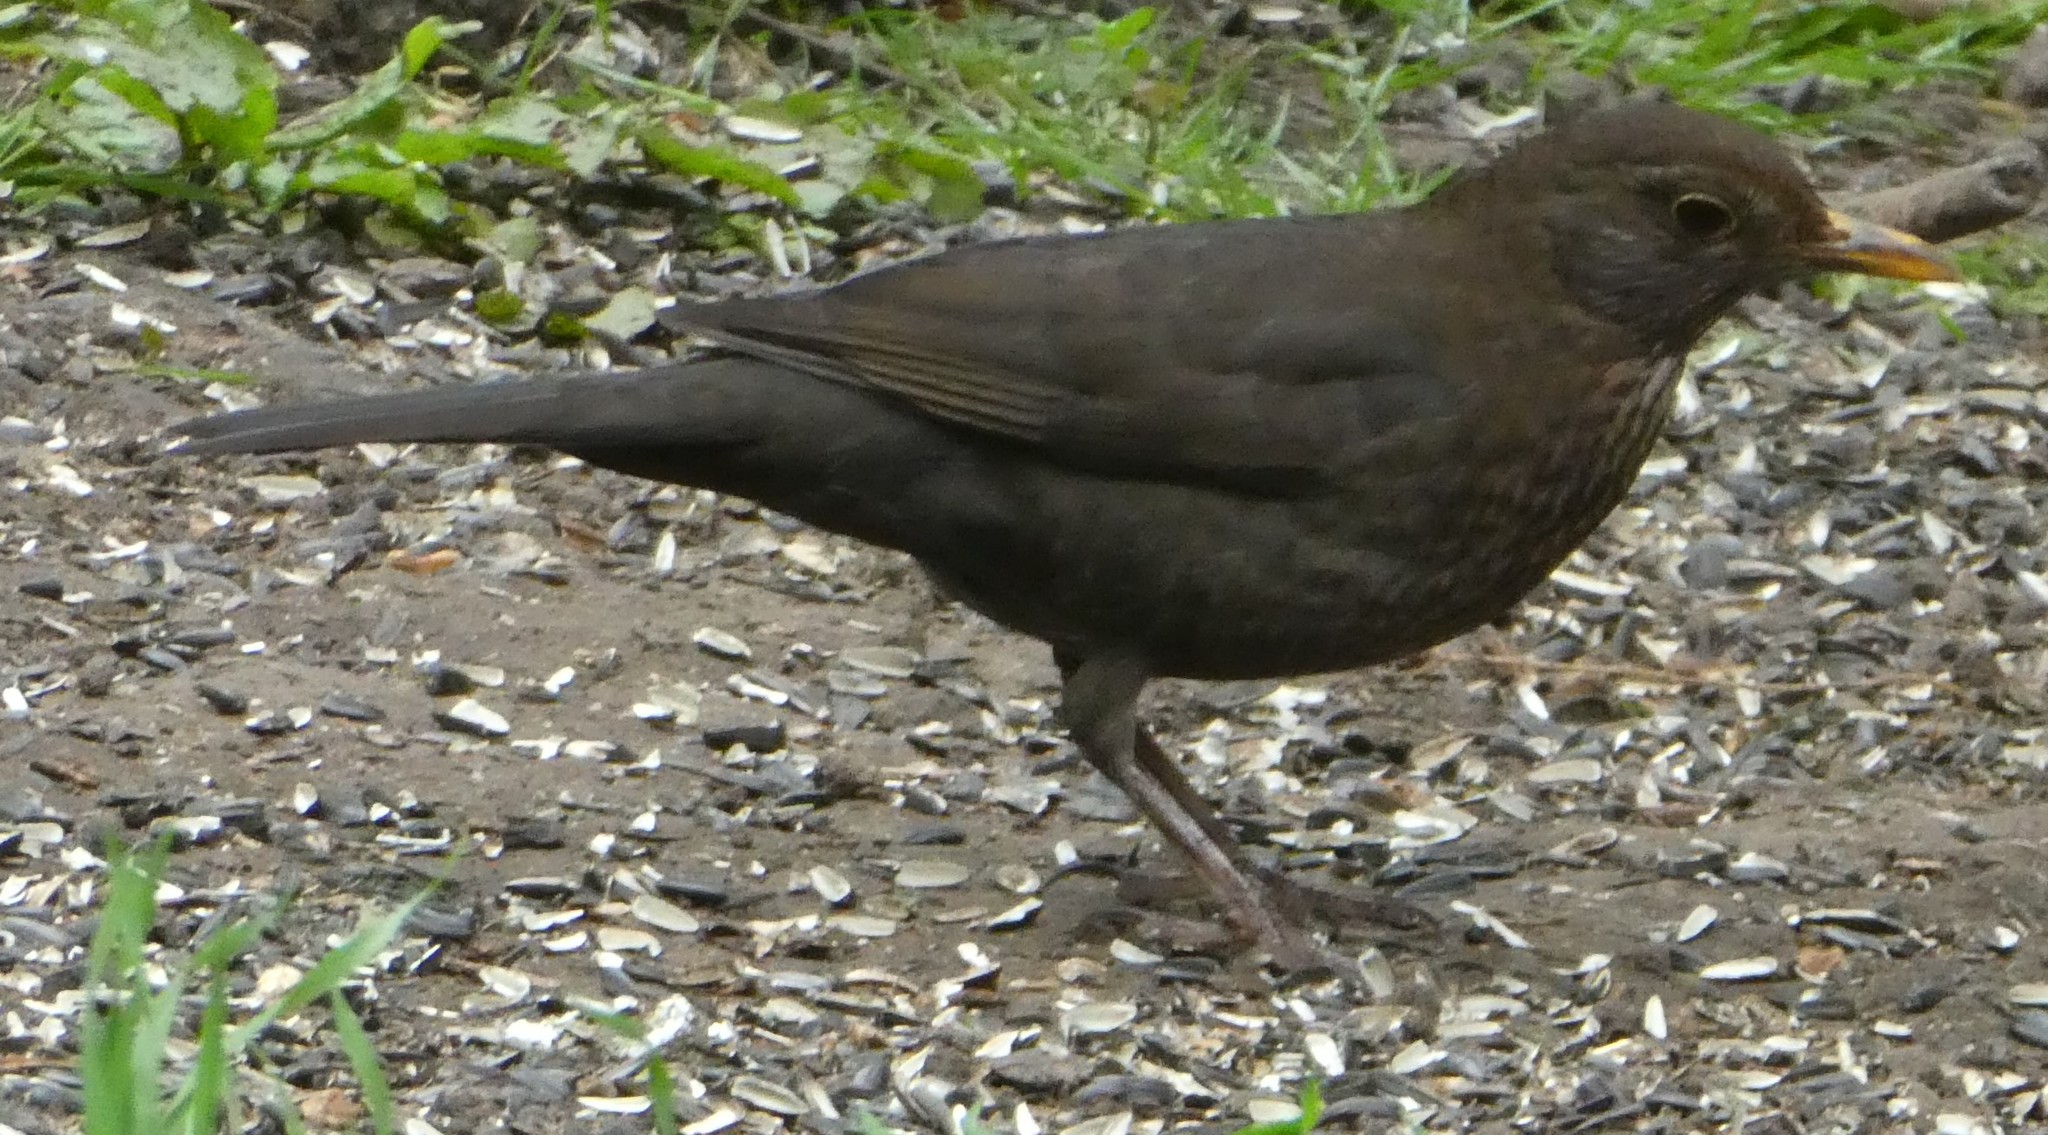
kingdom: Animalia
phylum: Chordata
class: Aves
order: Passeriformes
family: Turdidae
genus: Turdus
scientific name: Turdus merula
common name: Common blackbird
